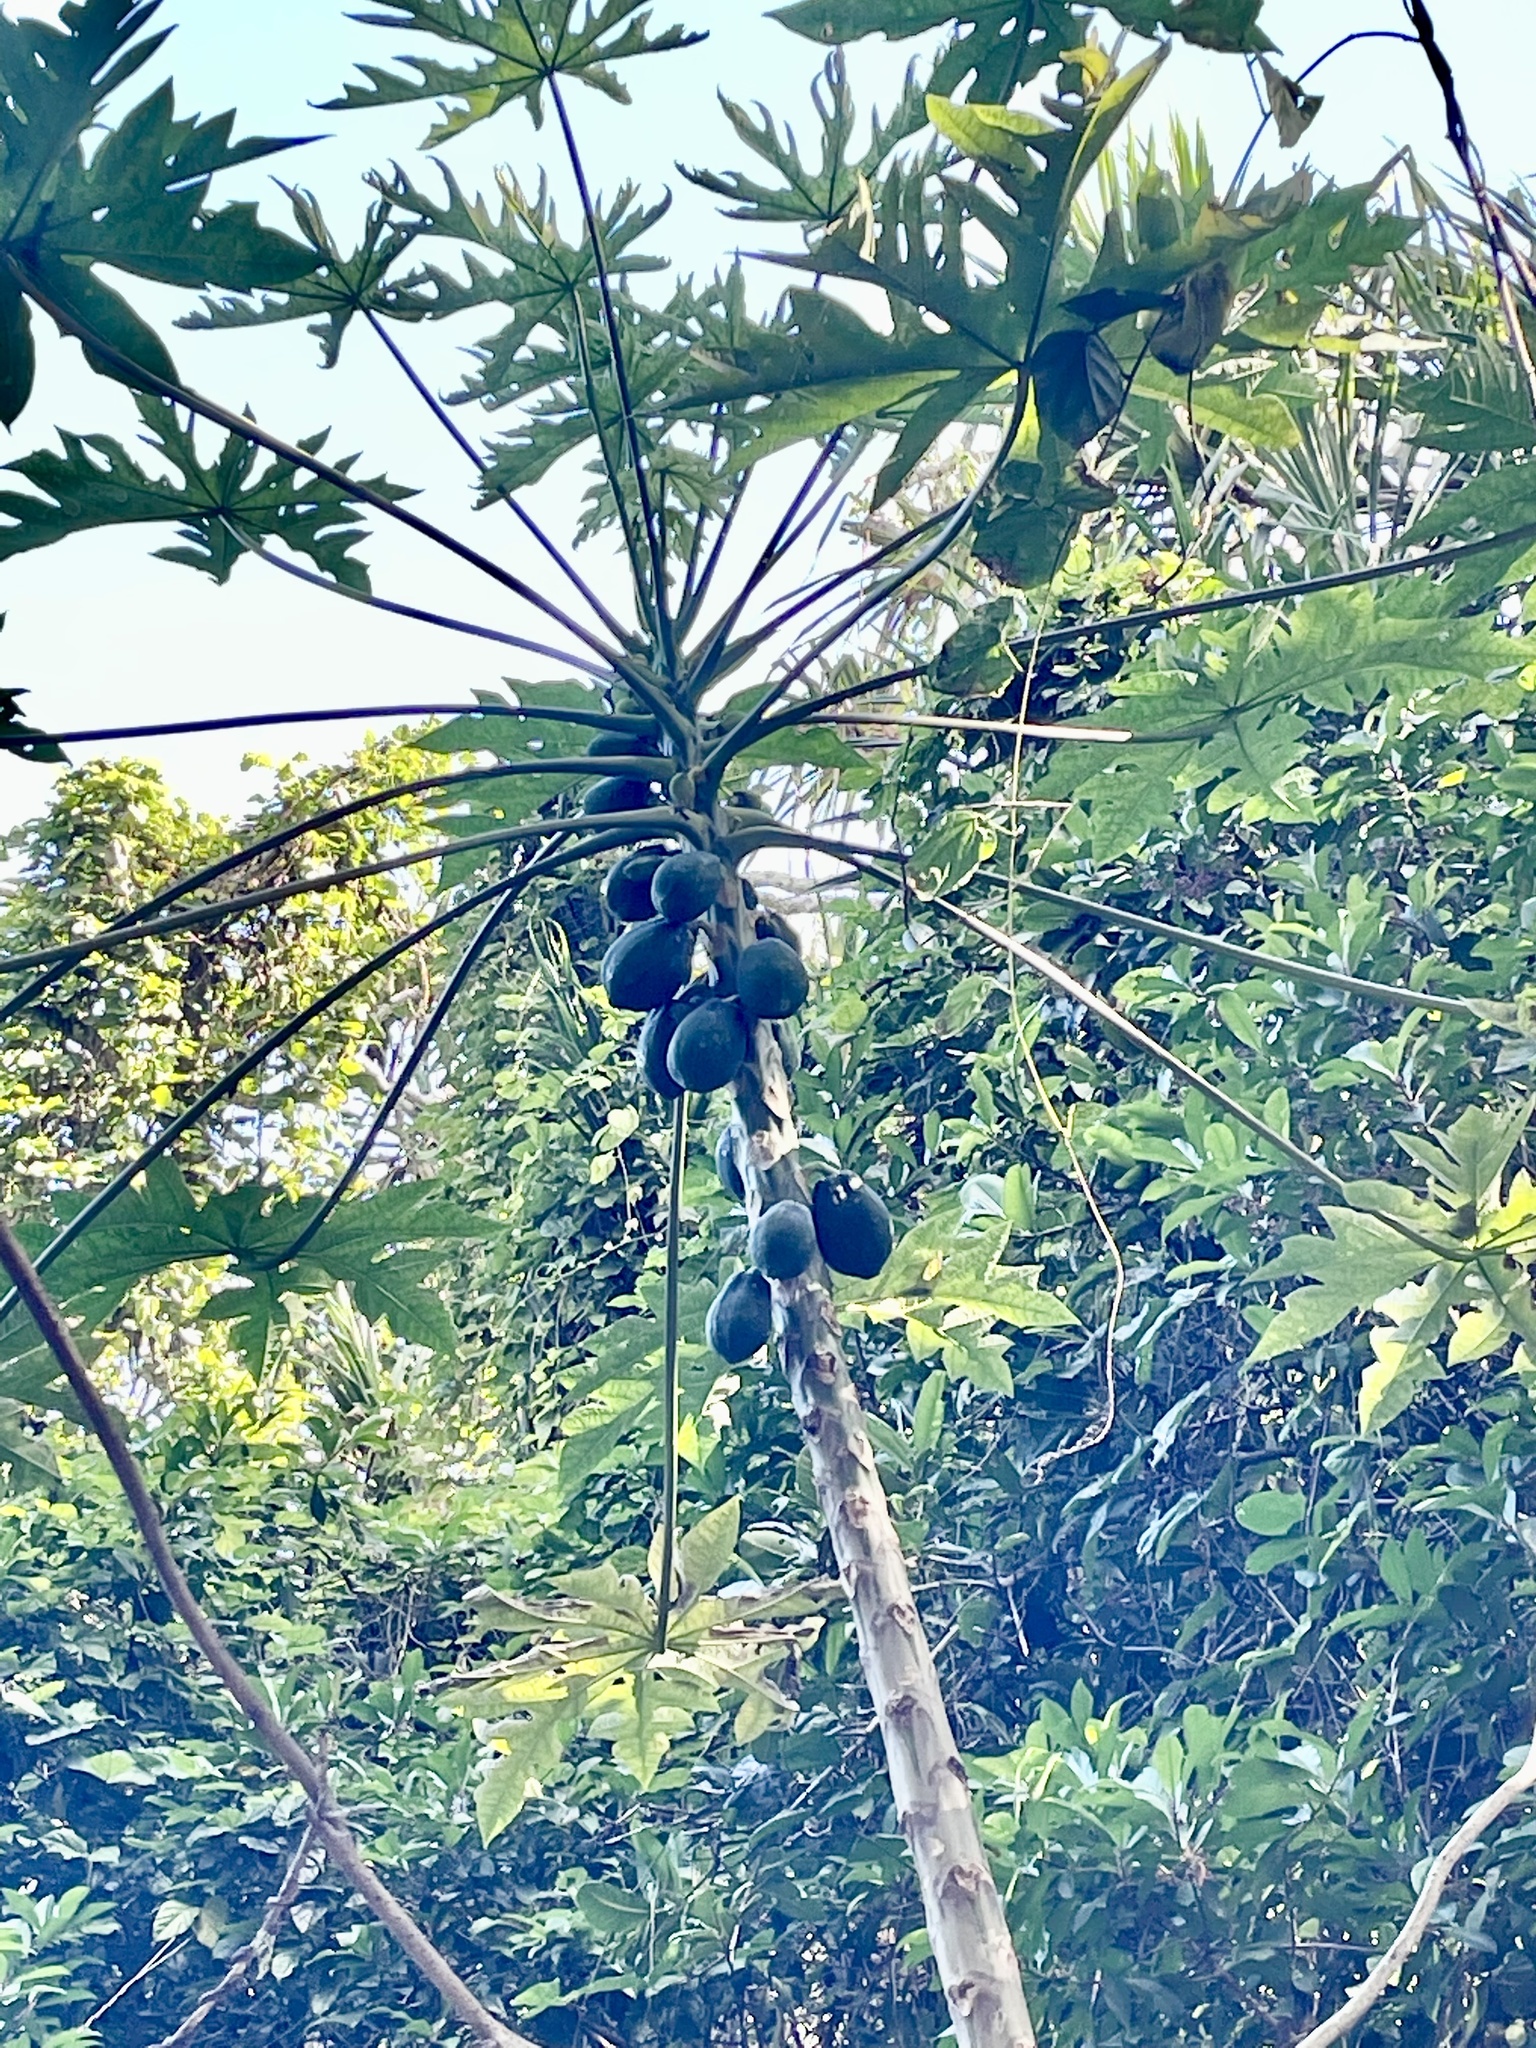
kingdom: Plantae
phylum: Tracheophyta
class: Magnoliopsida
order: Brassicales
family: Caricaceae
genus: Carica
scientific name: Carica papaya
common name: Papaya
